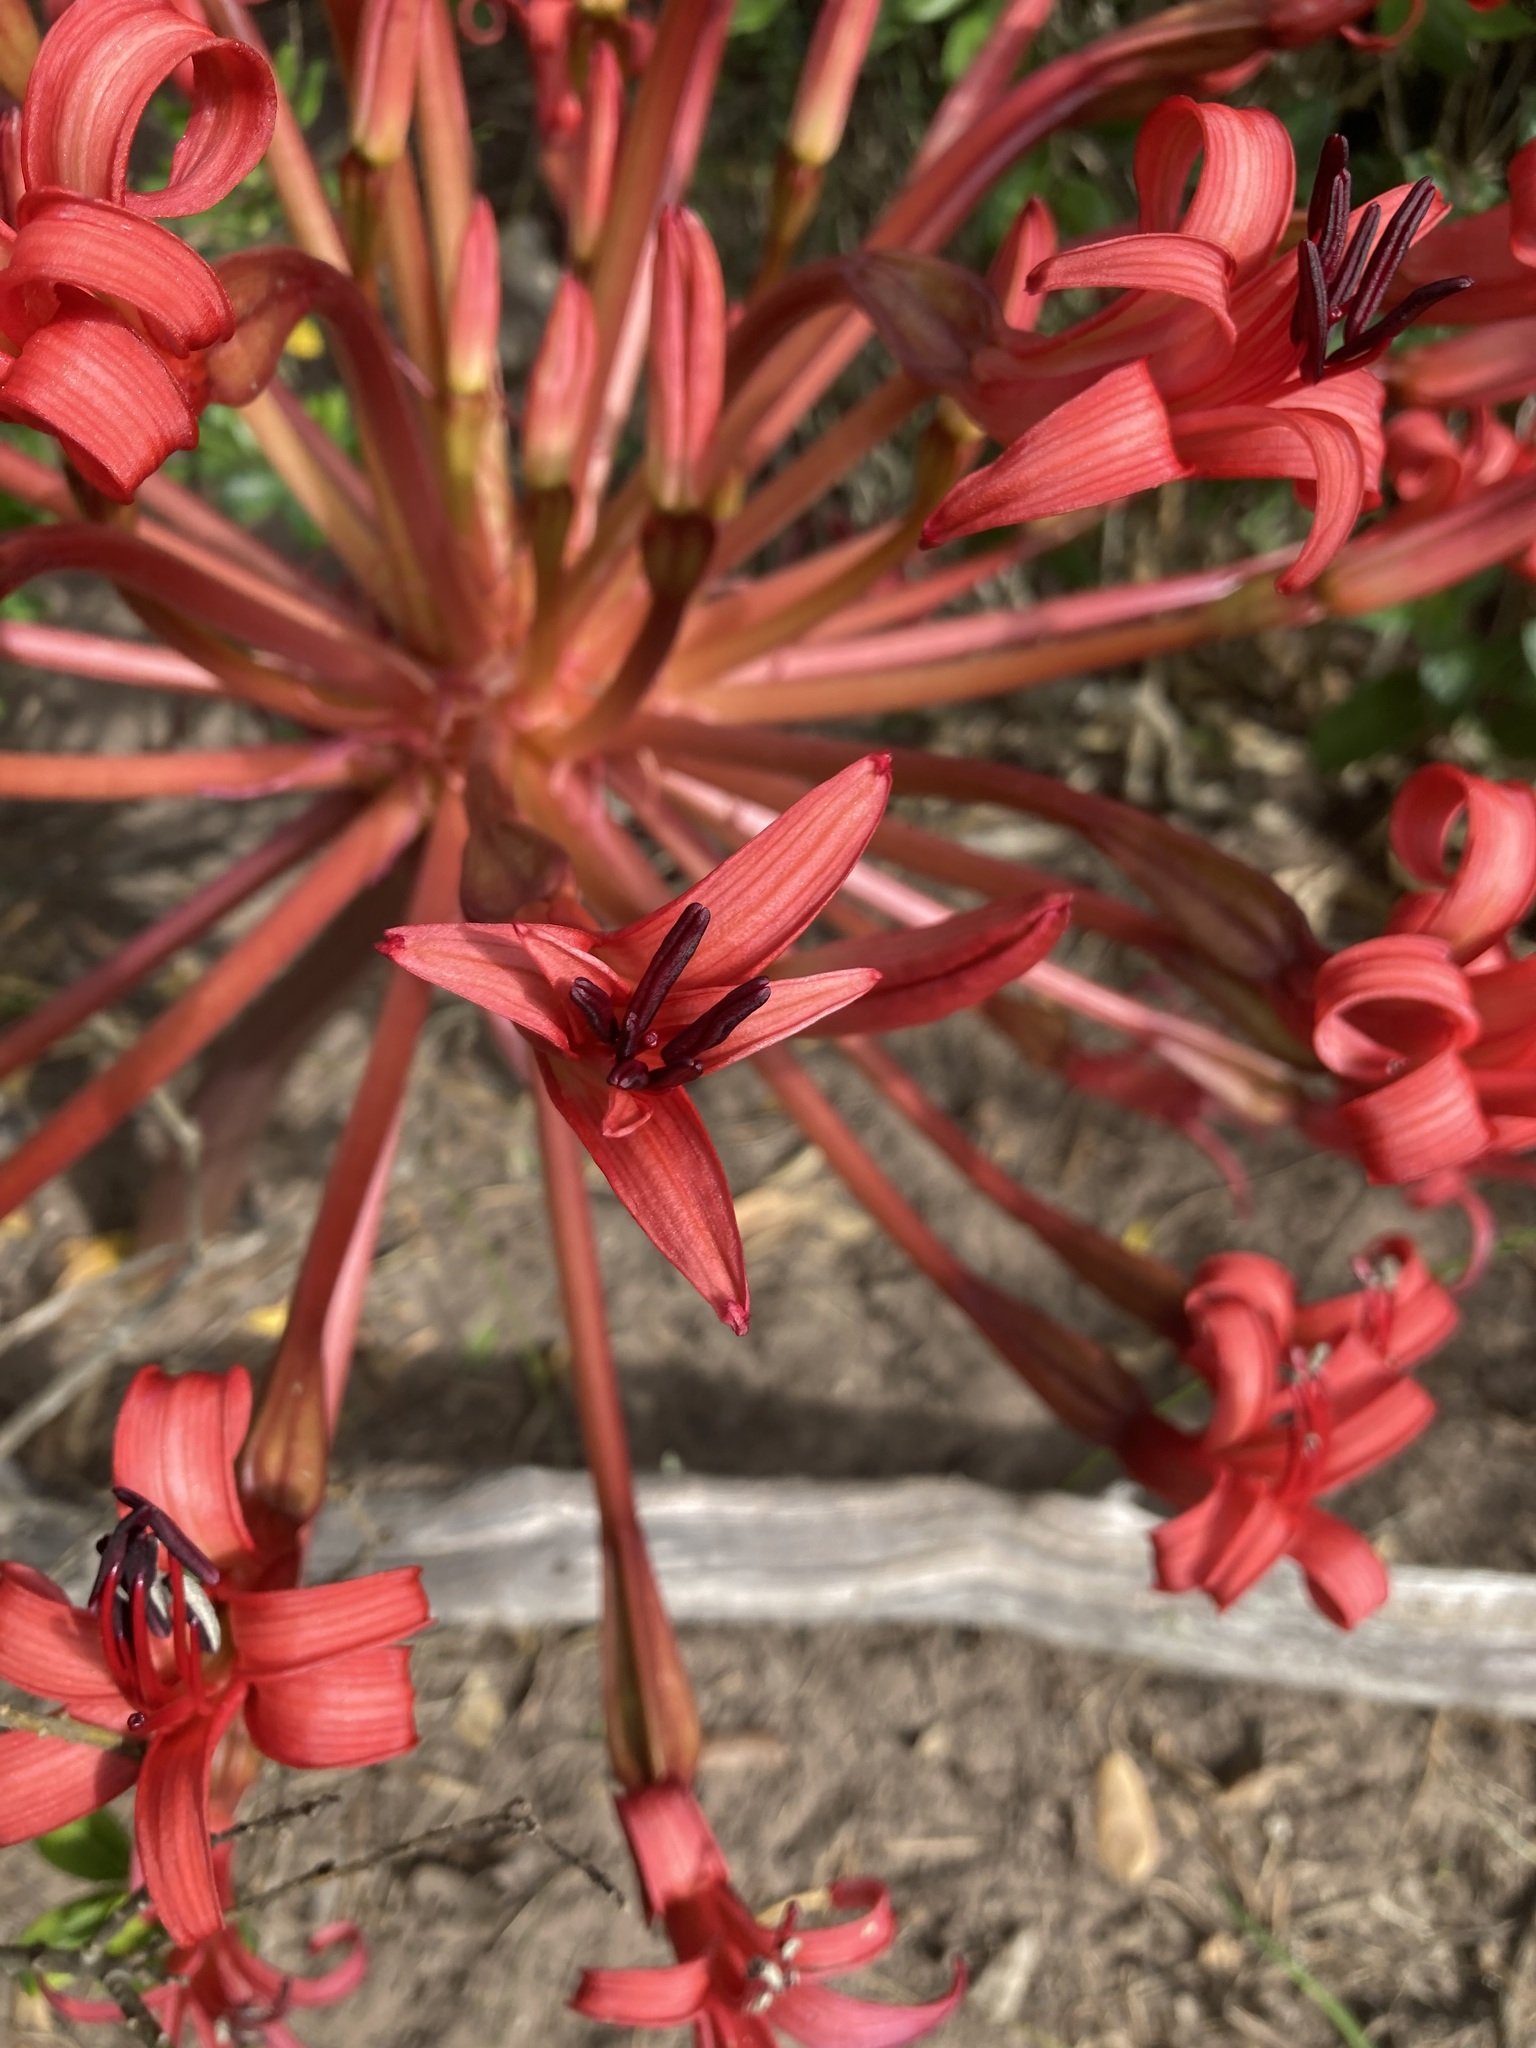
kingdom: Plantae
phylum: Tracheophyta
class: Liliopsida
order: Asparagales
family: Amaryllidaceae
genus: Brunsvigia
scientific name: Brunsvigia orientalis
